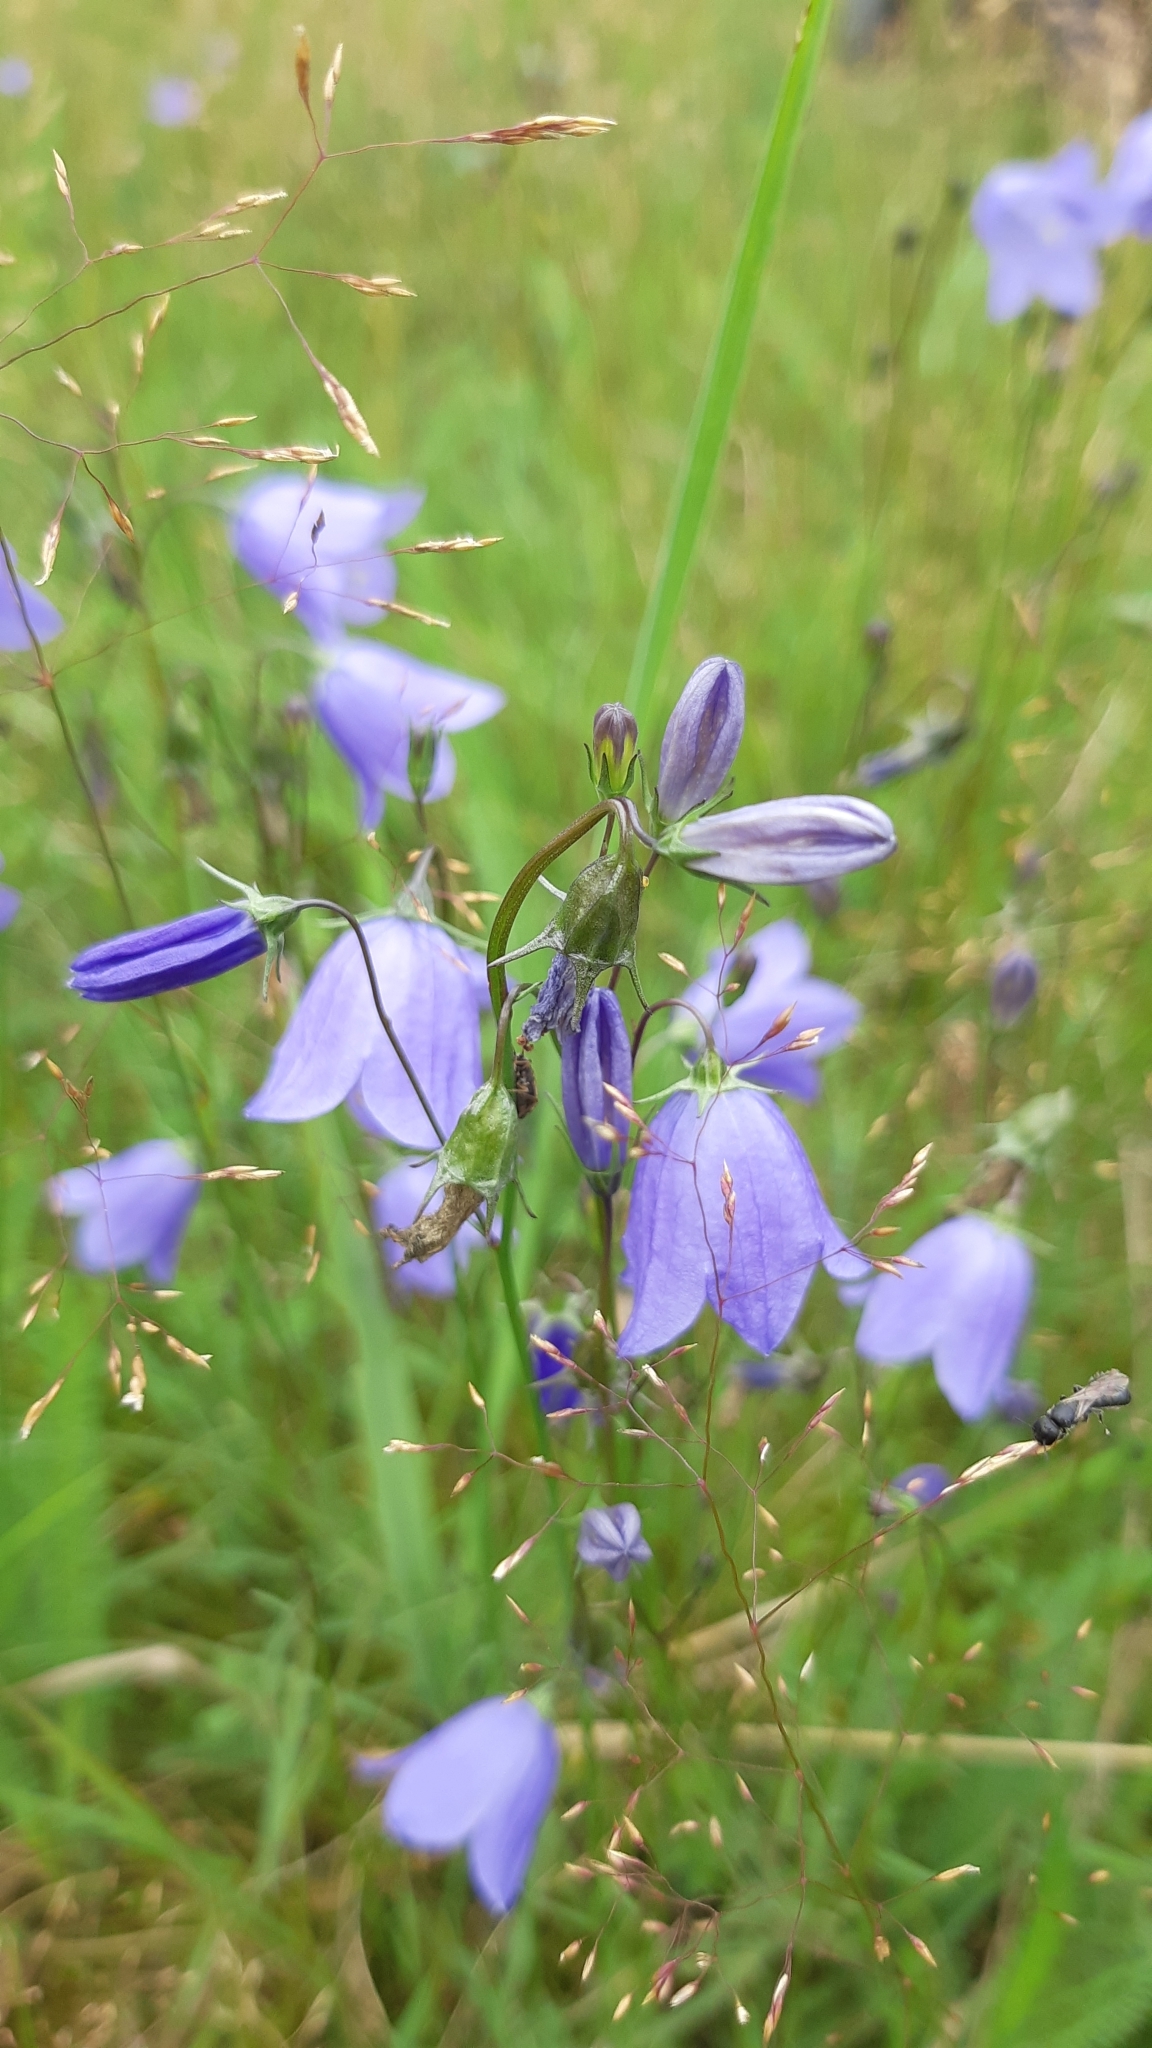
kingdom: Plantae
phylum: Tracheophyta
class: Magnoliopsida
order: Asterales
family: Campanulaceae
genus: Campanula
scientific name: Campanula rotundifolia
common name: Harebell
